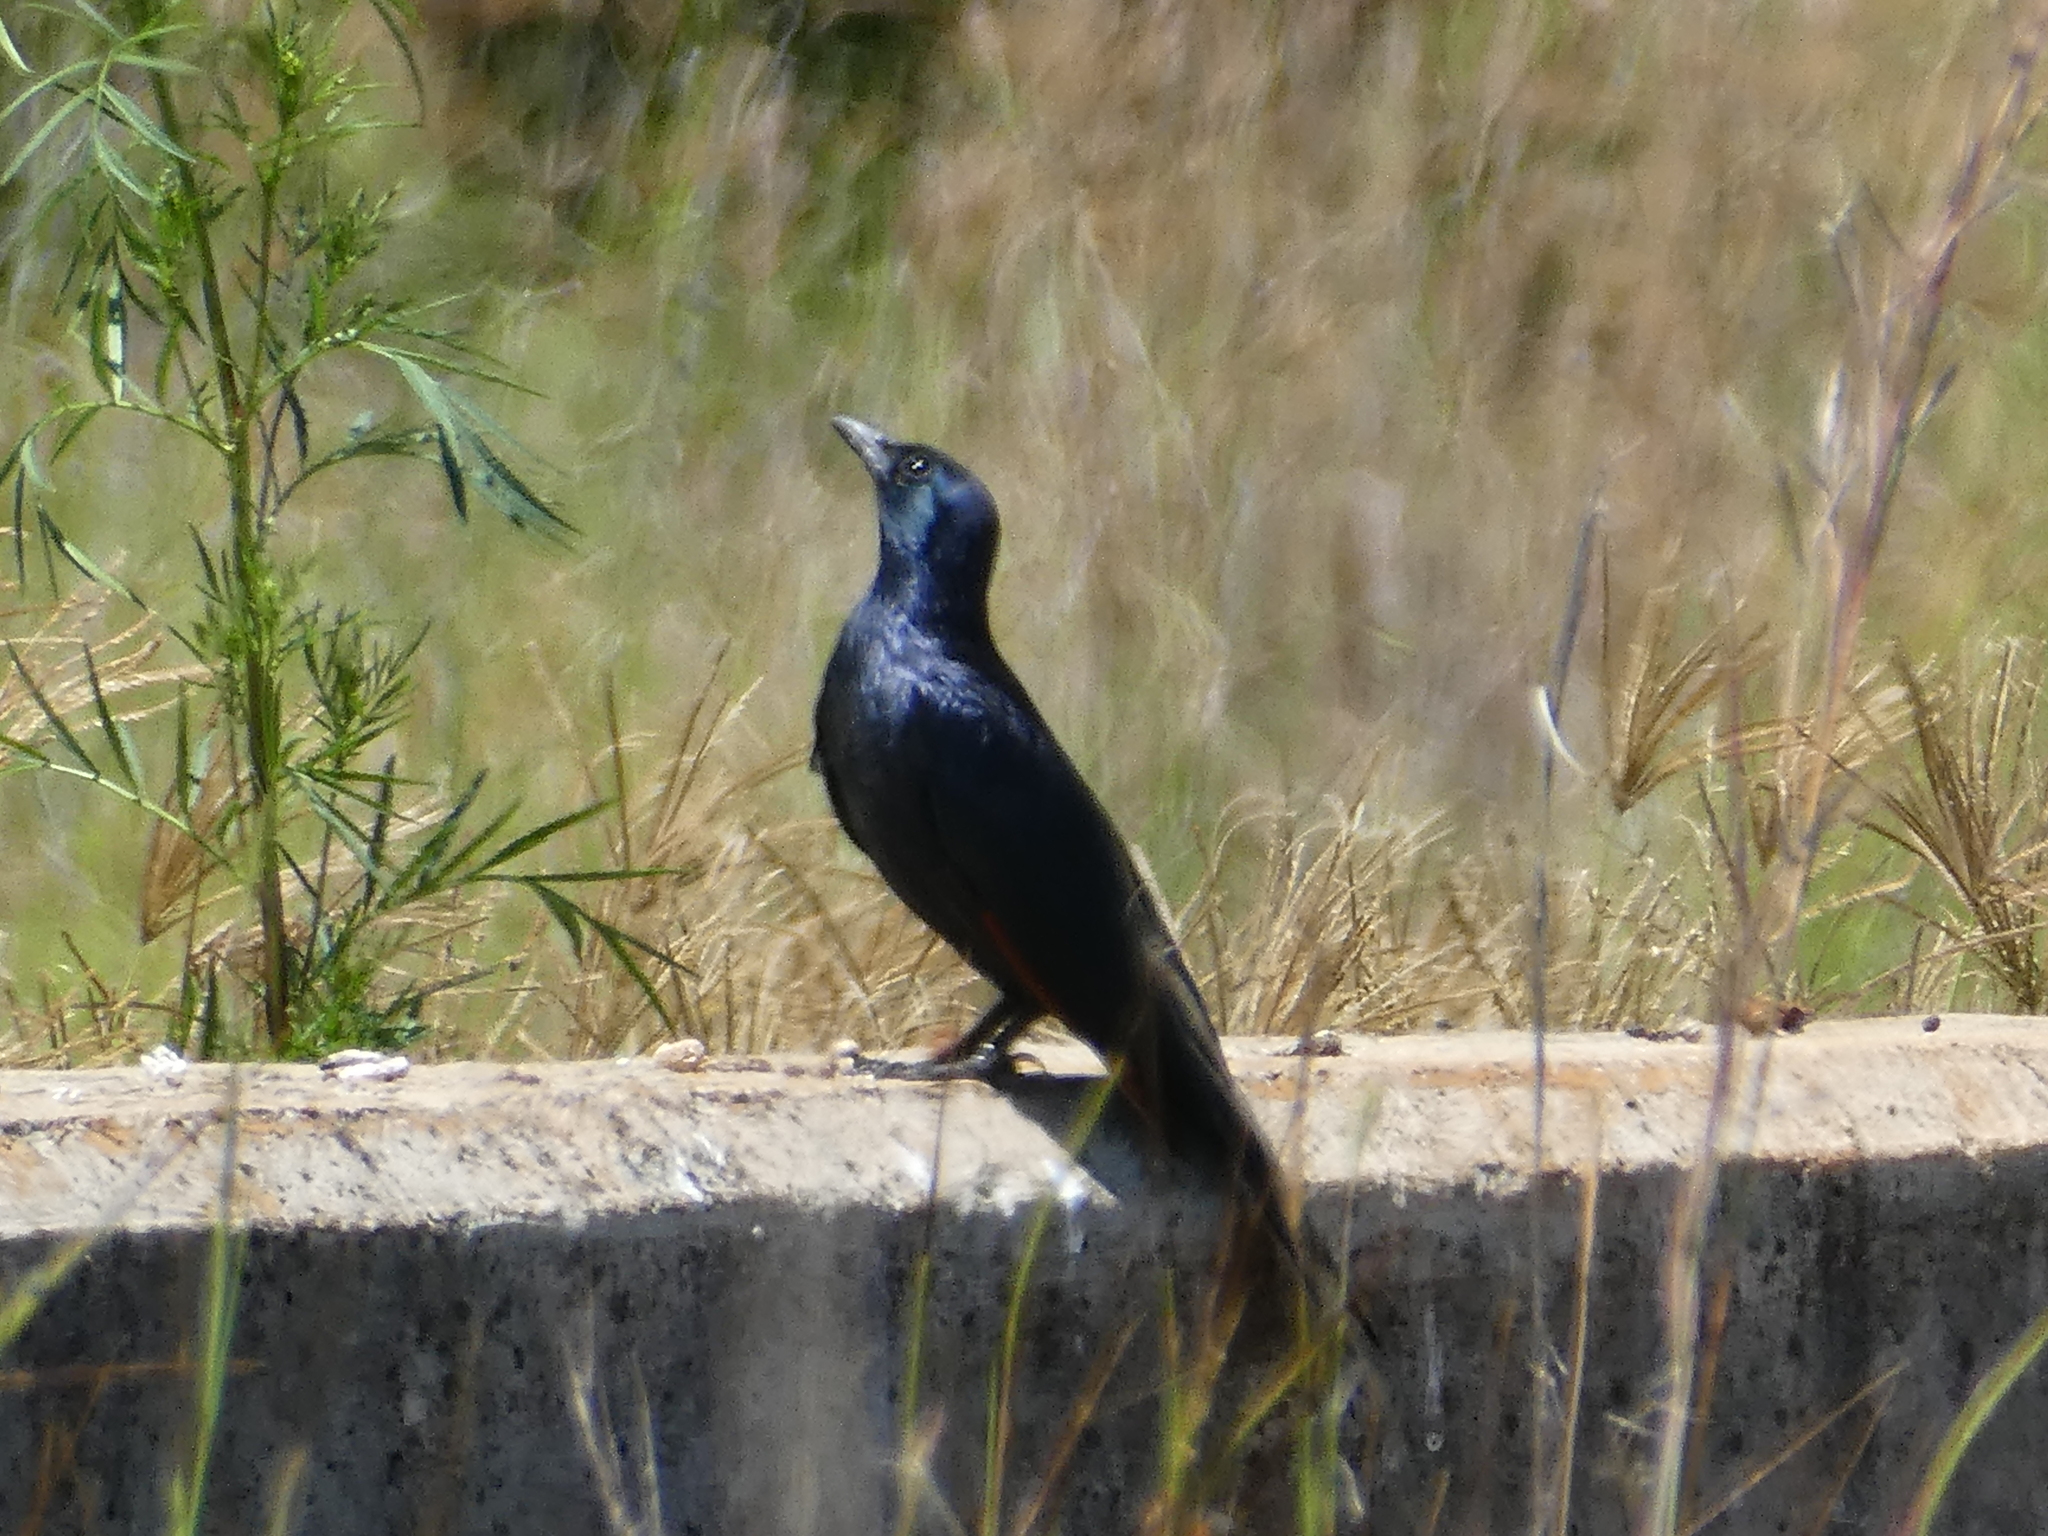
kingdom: Animalia
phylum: Chordata
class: Aves
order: Passeriformes
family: Sturnidae
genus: Onychognathus
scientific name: Onychognathus morio
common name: Red-winged starling
